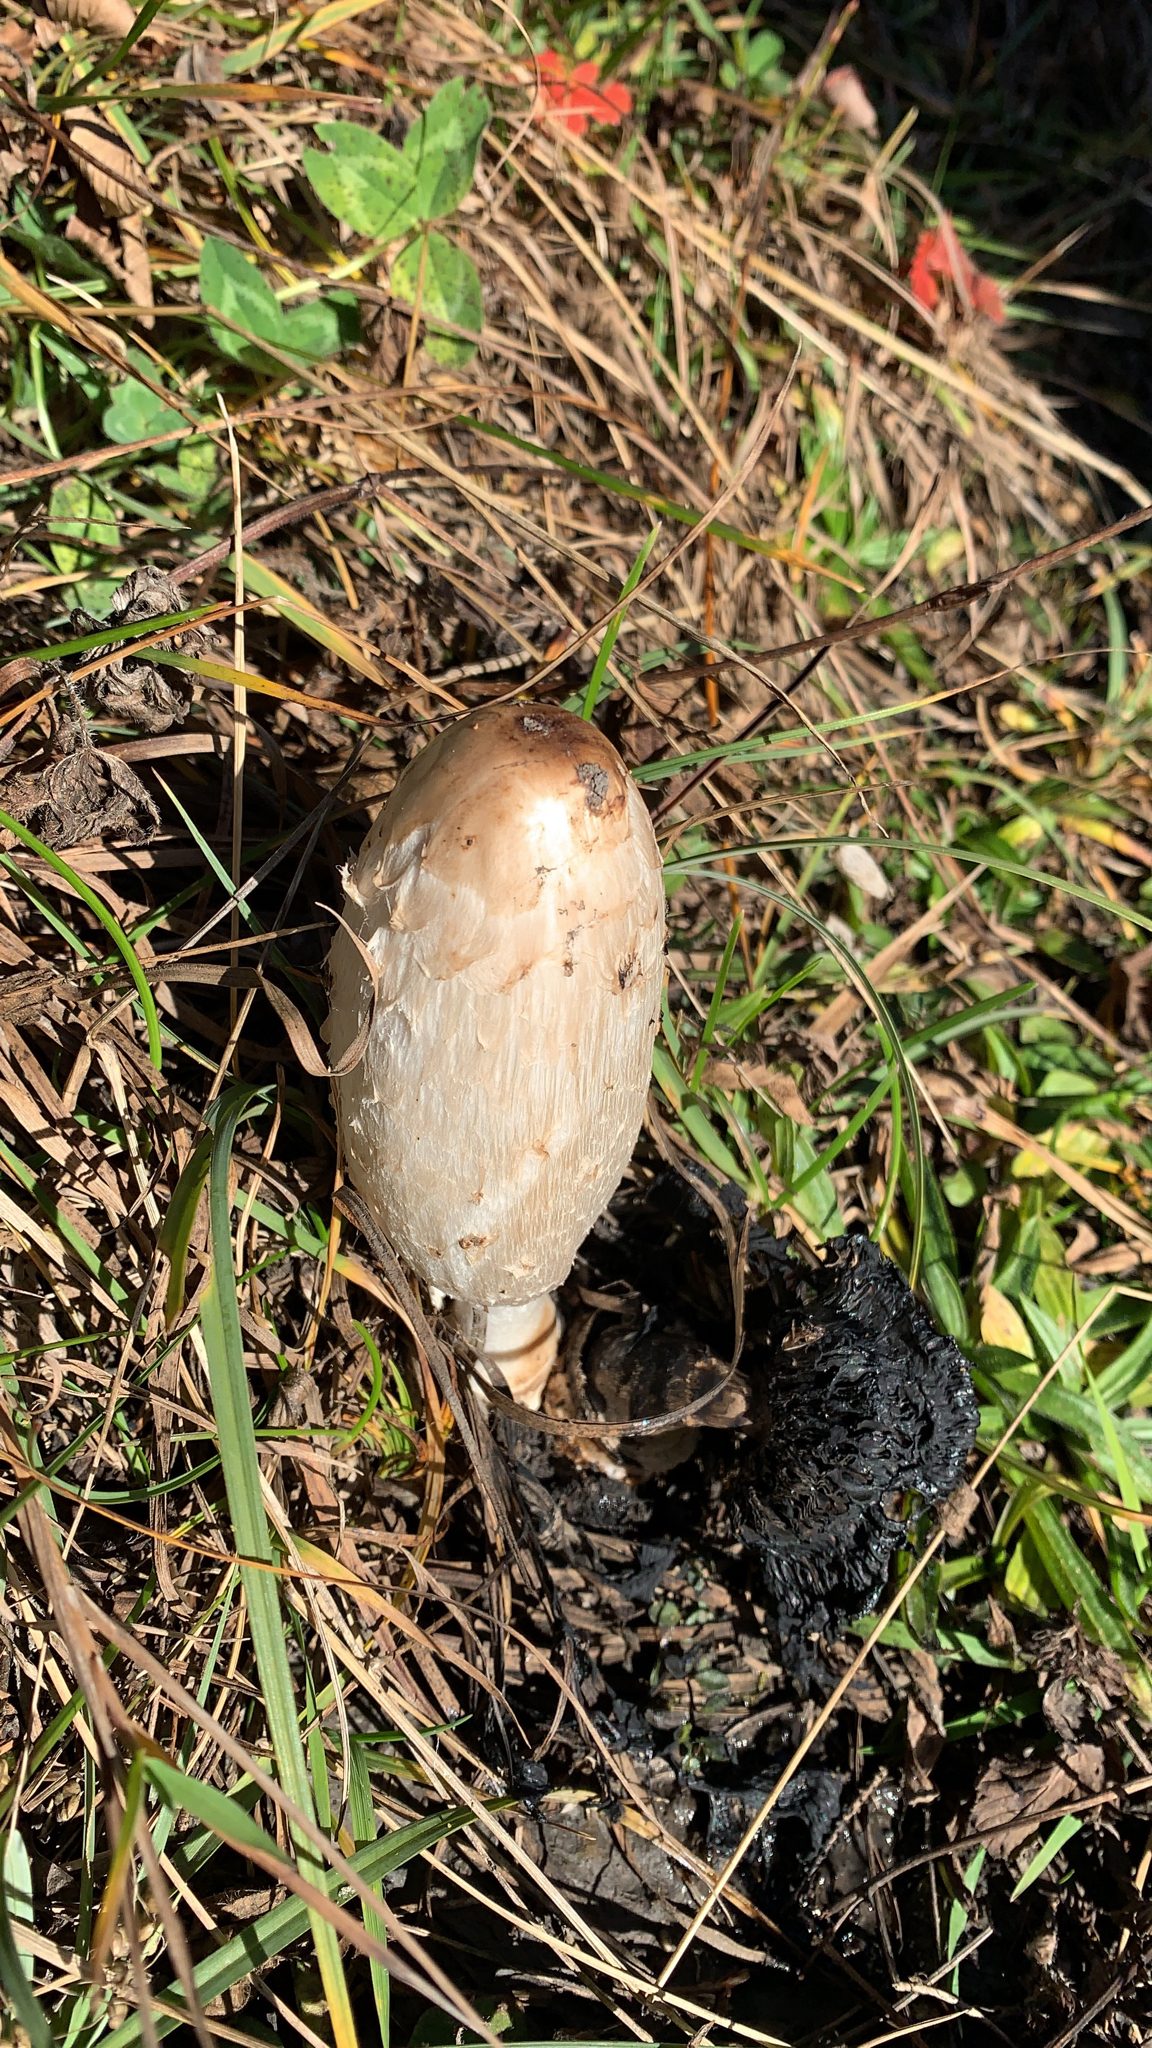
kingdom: Fungi
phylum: Basidiomycota
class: Agaricomycetes
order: Agaricales
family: Agaricaceae
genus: Coprinus
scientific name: Coprinus comatus
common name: Lawyer's wig
